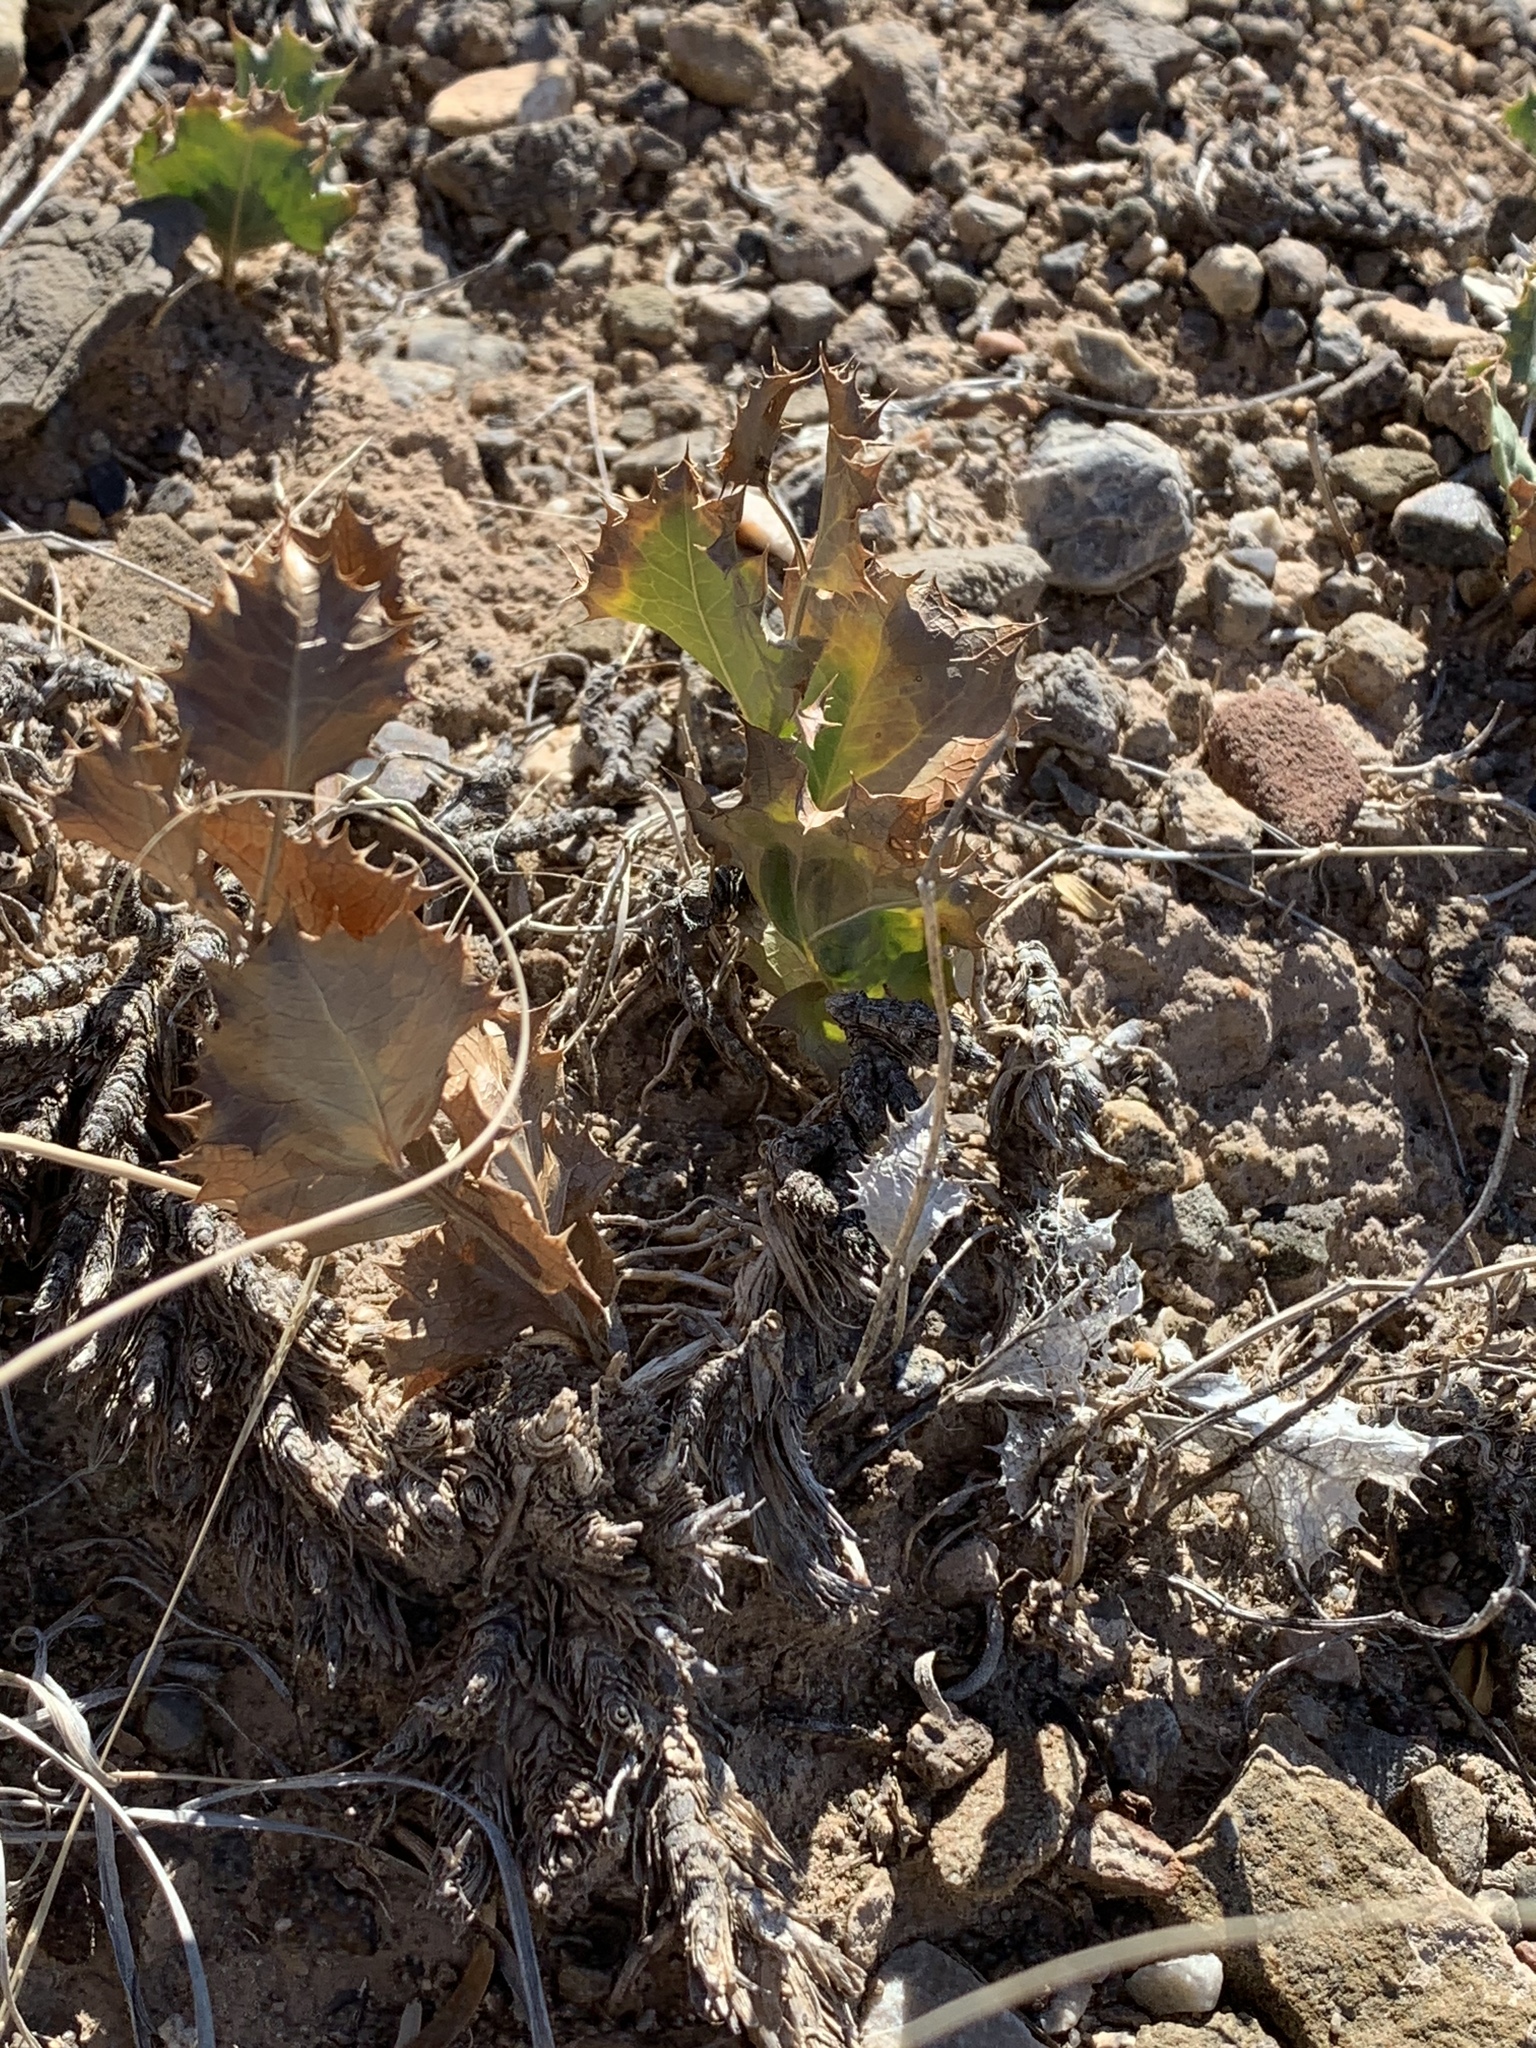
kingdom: Plantae
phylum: Tracheophyta
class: Magnoliopsida
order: Asterales
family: Asteraceae
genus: Acourtia
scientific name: Acourtia nana
